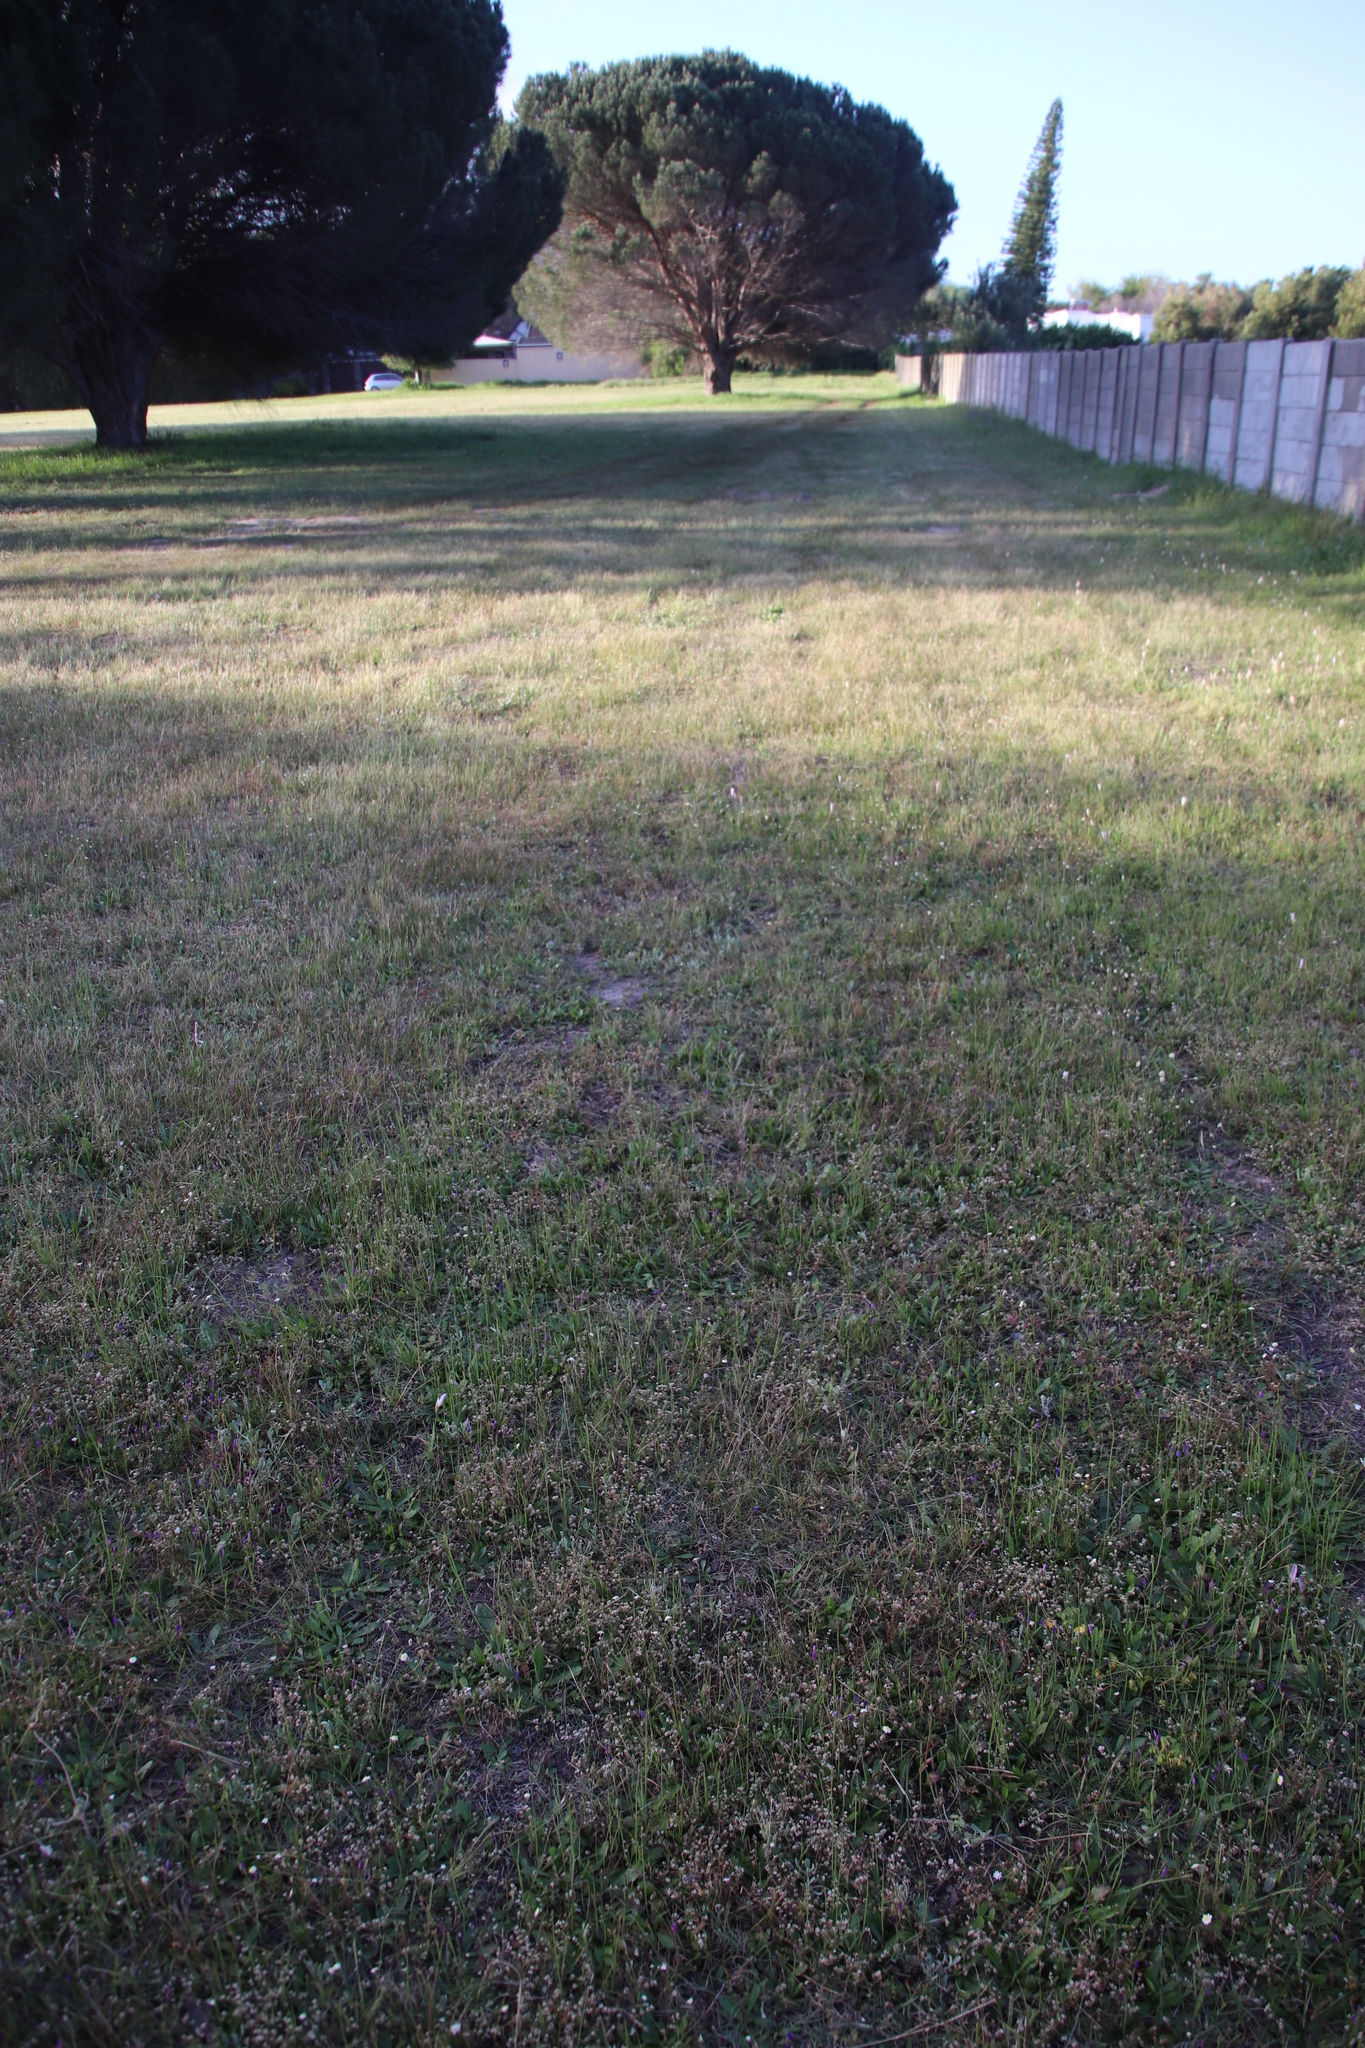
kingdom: Plantae
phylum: Tracheophyta
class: Magnoliopsida
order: Caryophyllales
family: Molluginaceae
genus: Adenogramma
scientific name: Adenogramma glomerata
